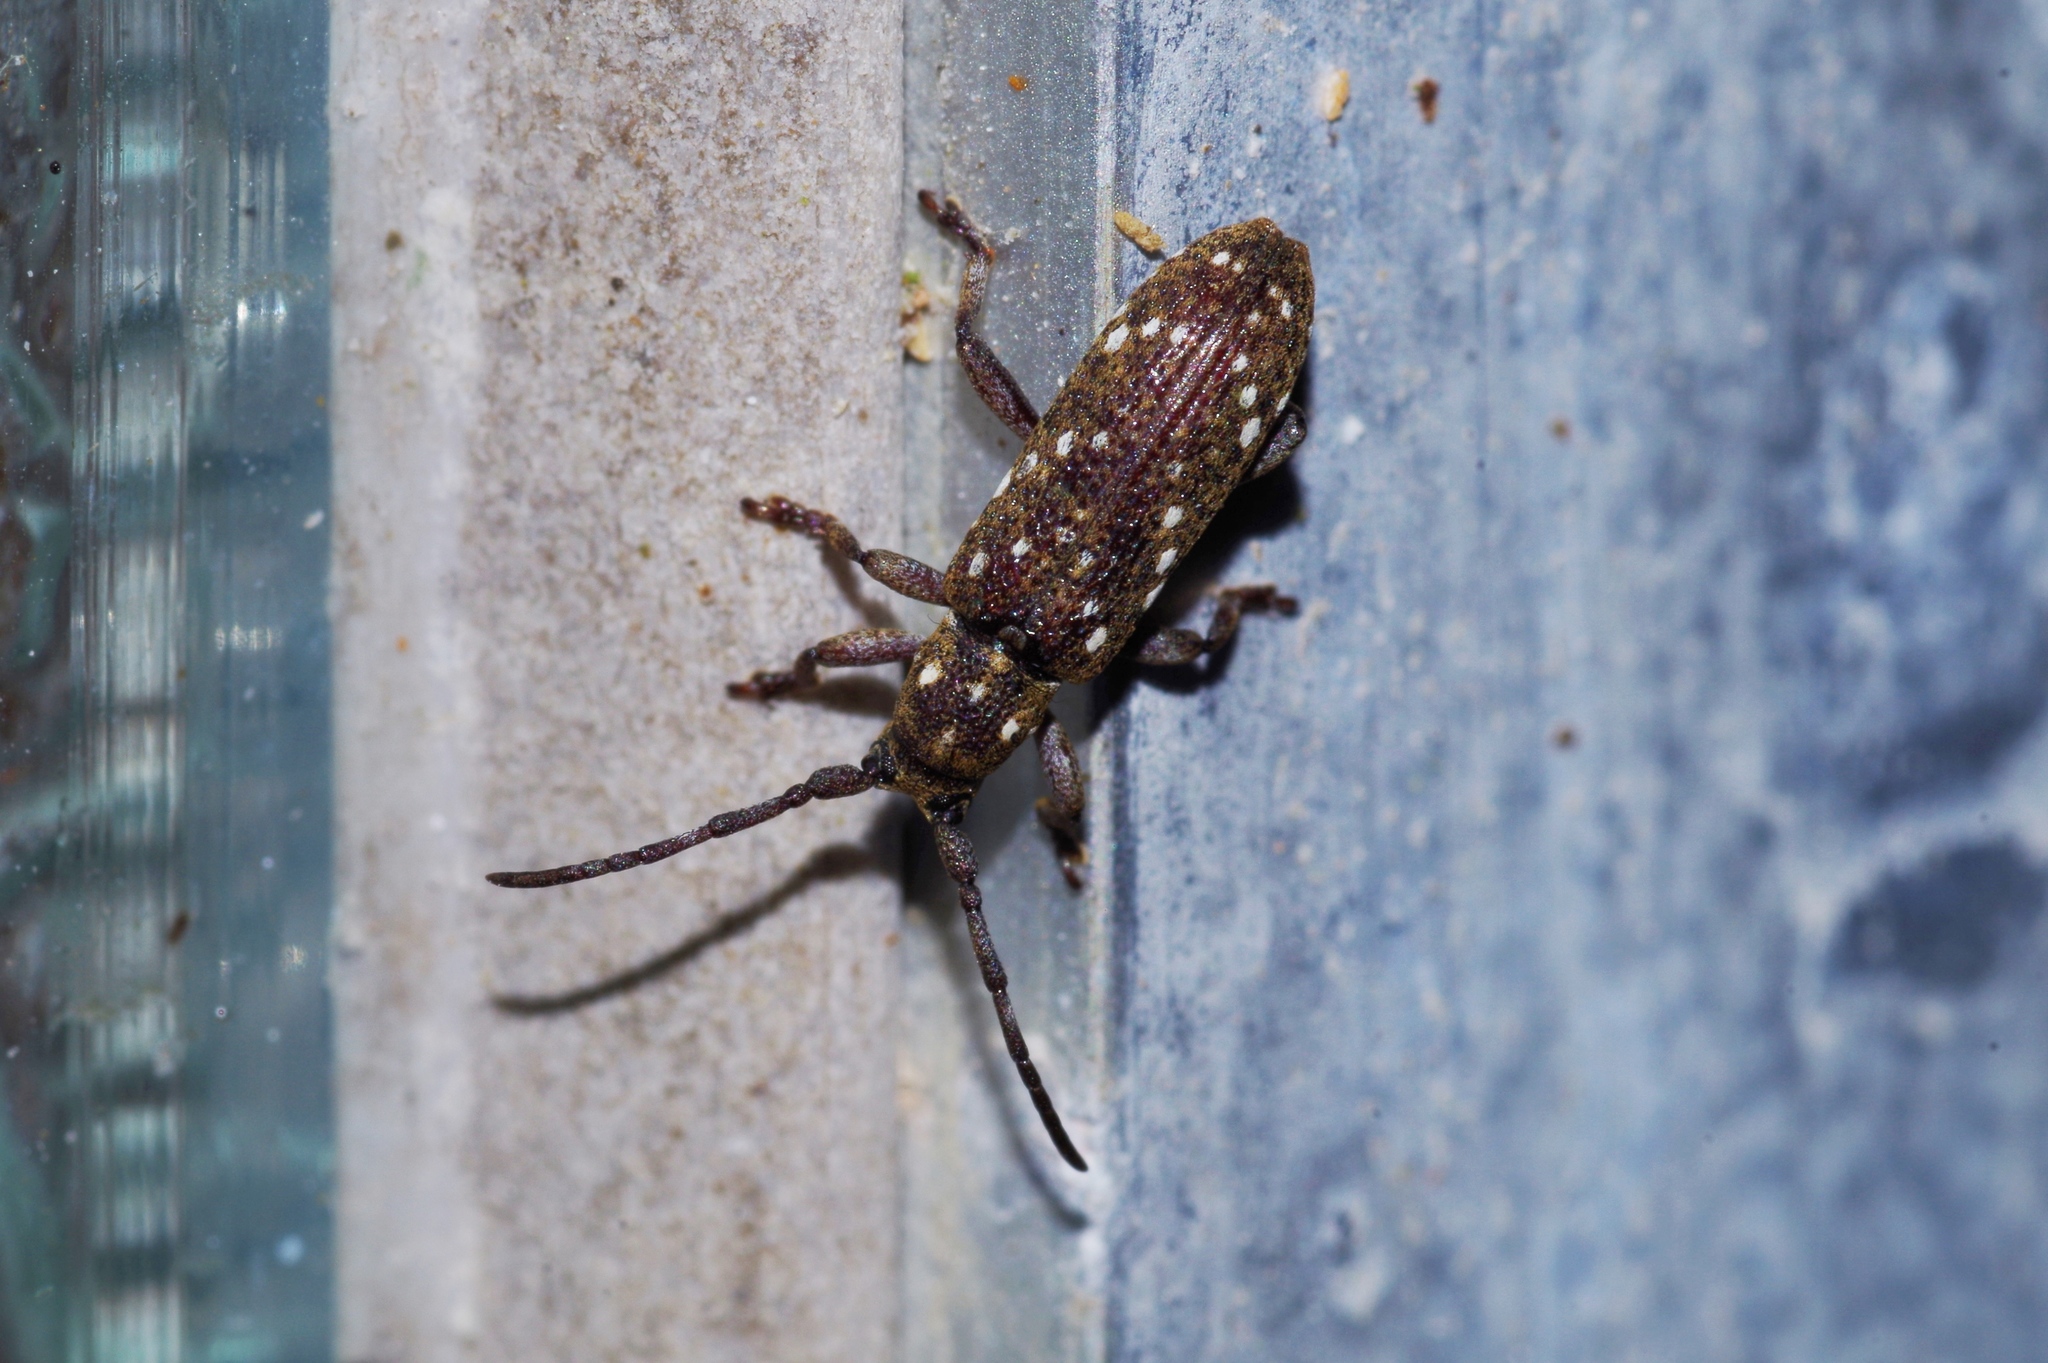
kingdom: Animalia
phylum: Arthropoda
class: Insecta
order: Coleoptera
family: Cerambycidae
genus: Apomecyna
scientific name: Apomecyna histrio
